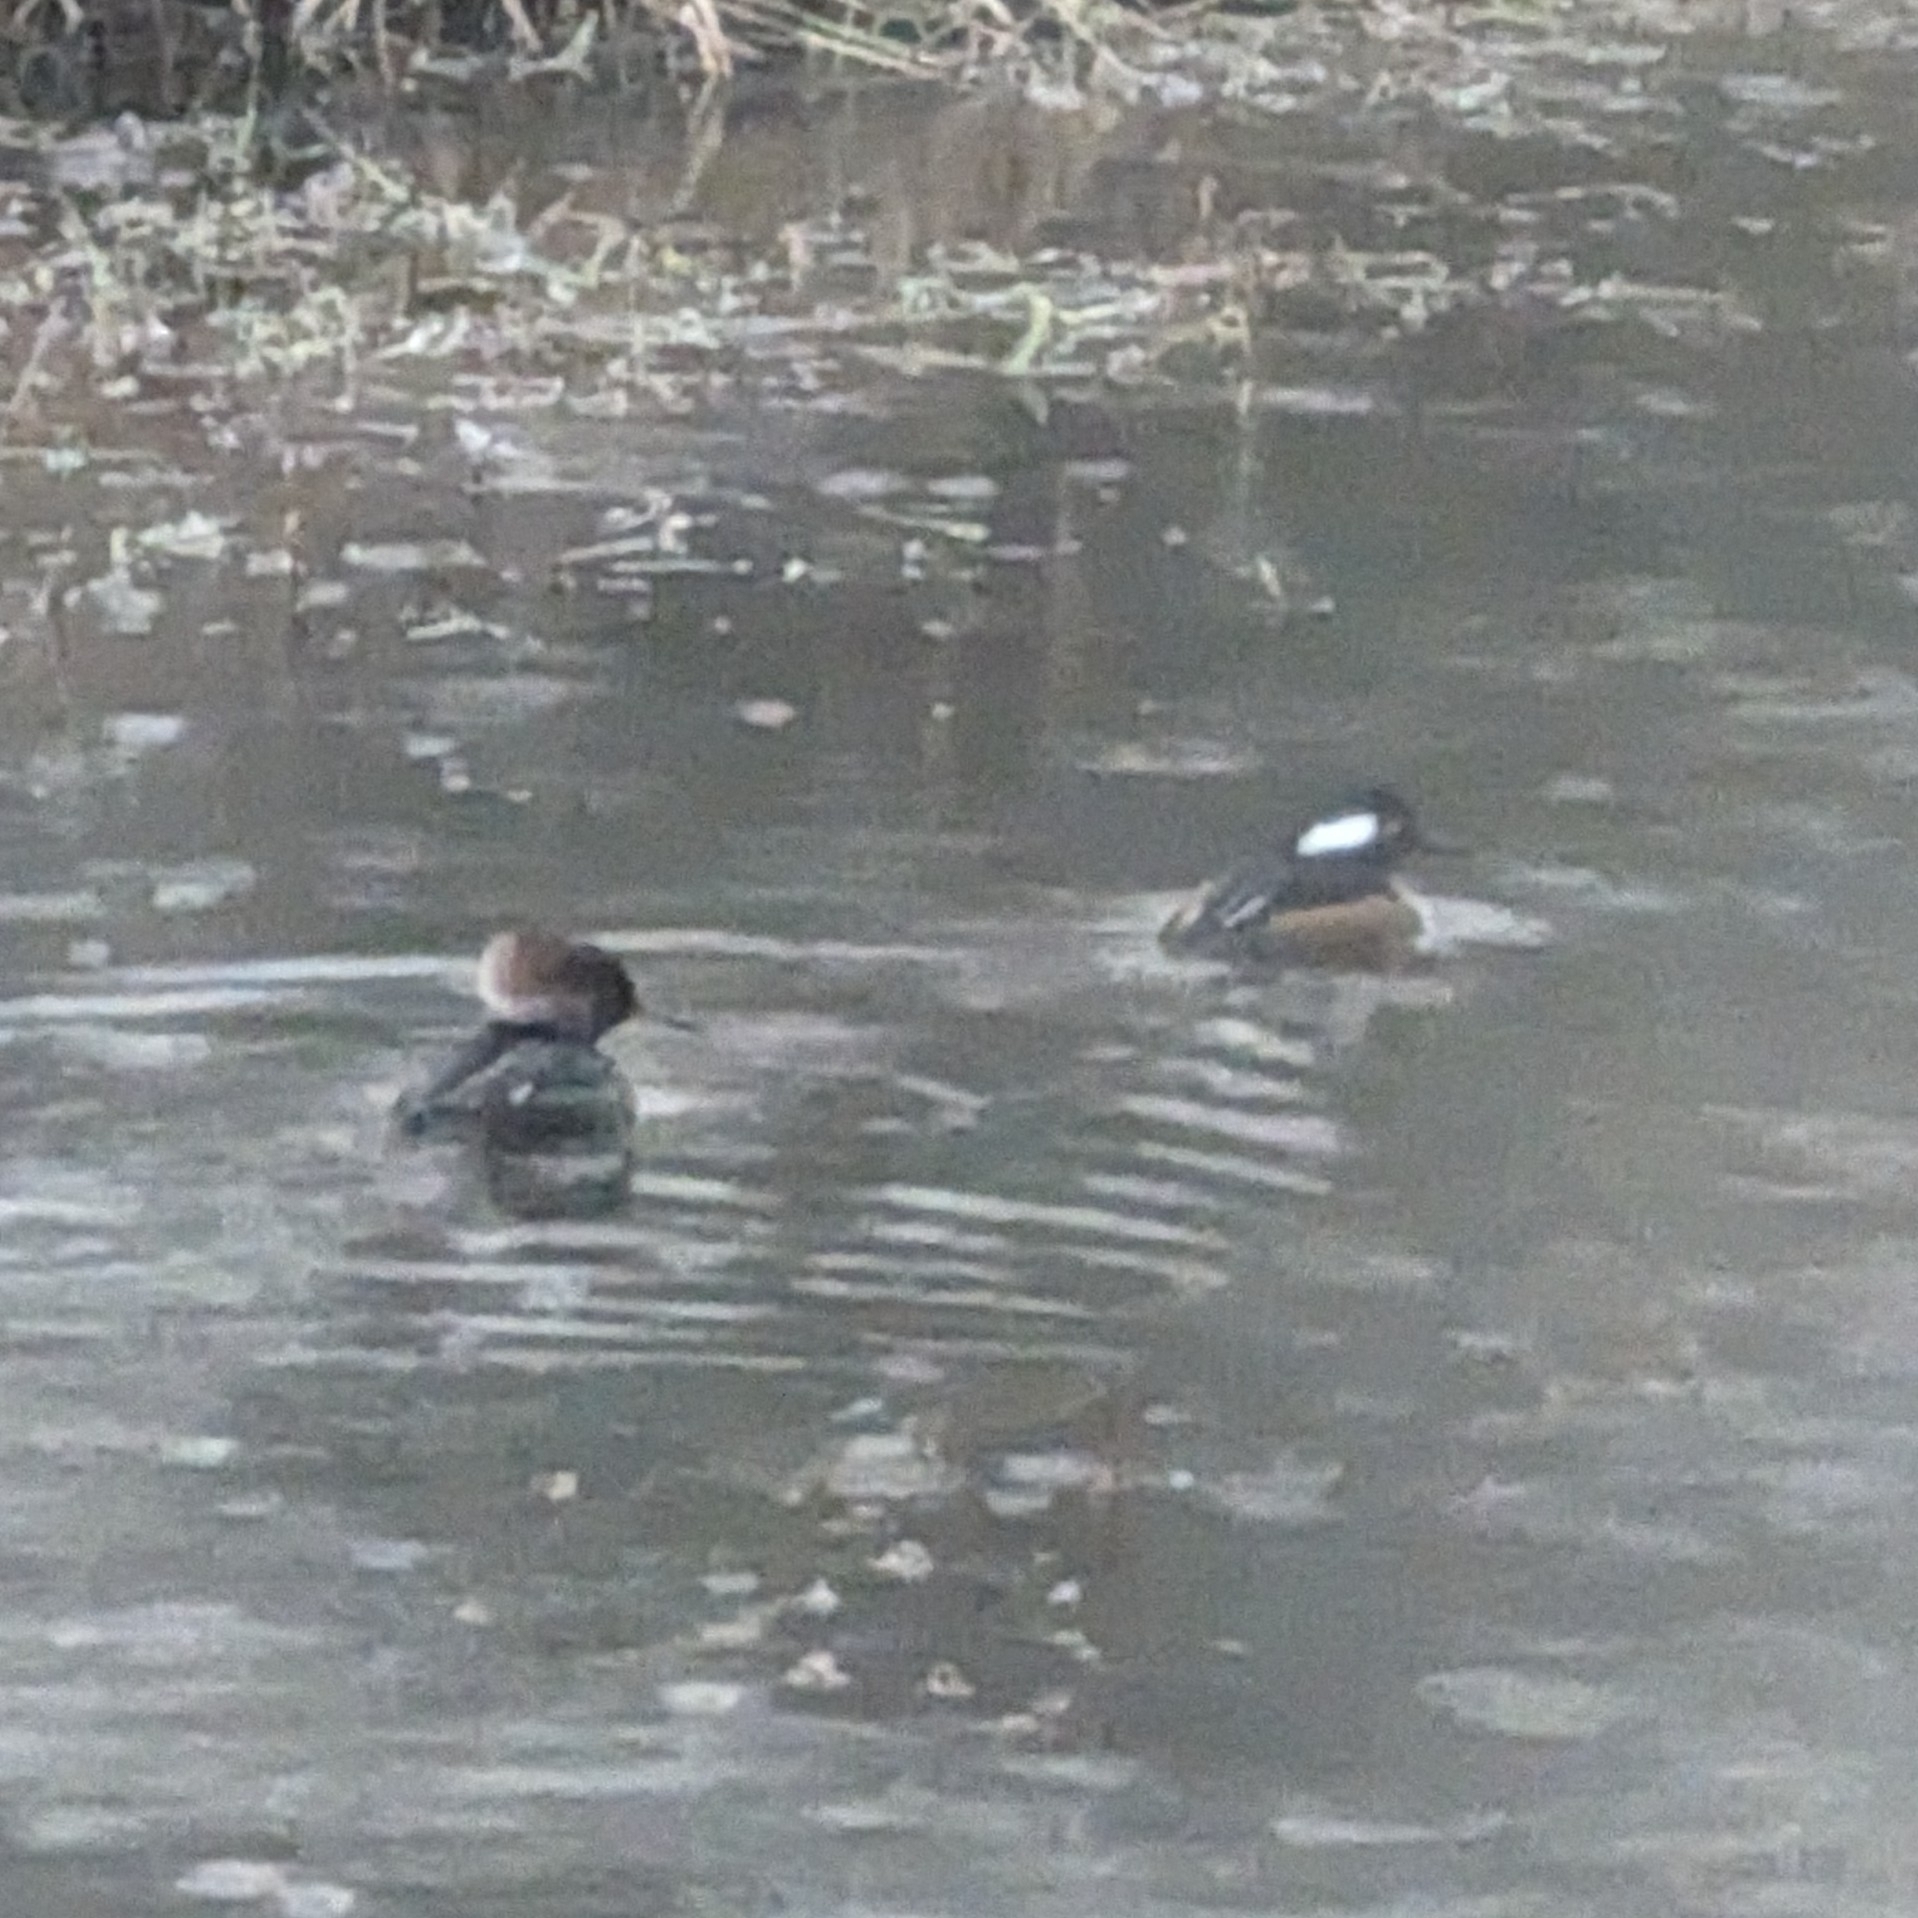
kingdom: Animalia
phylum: Chordata
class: Aves
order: Anseriformes
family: Anatidae
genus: Lophodytes
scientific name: Lophodytes cucullatus
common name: Hooded merganser
